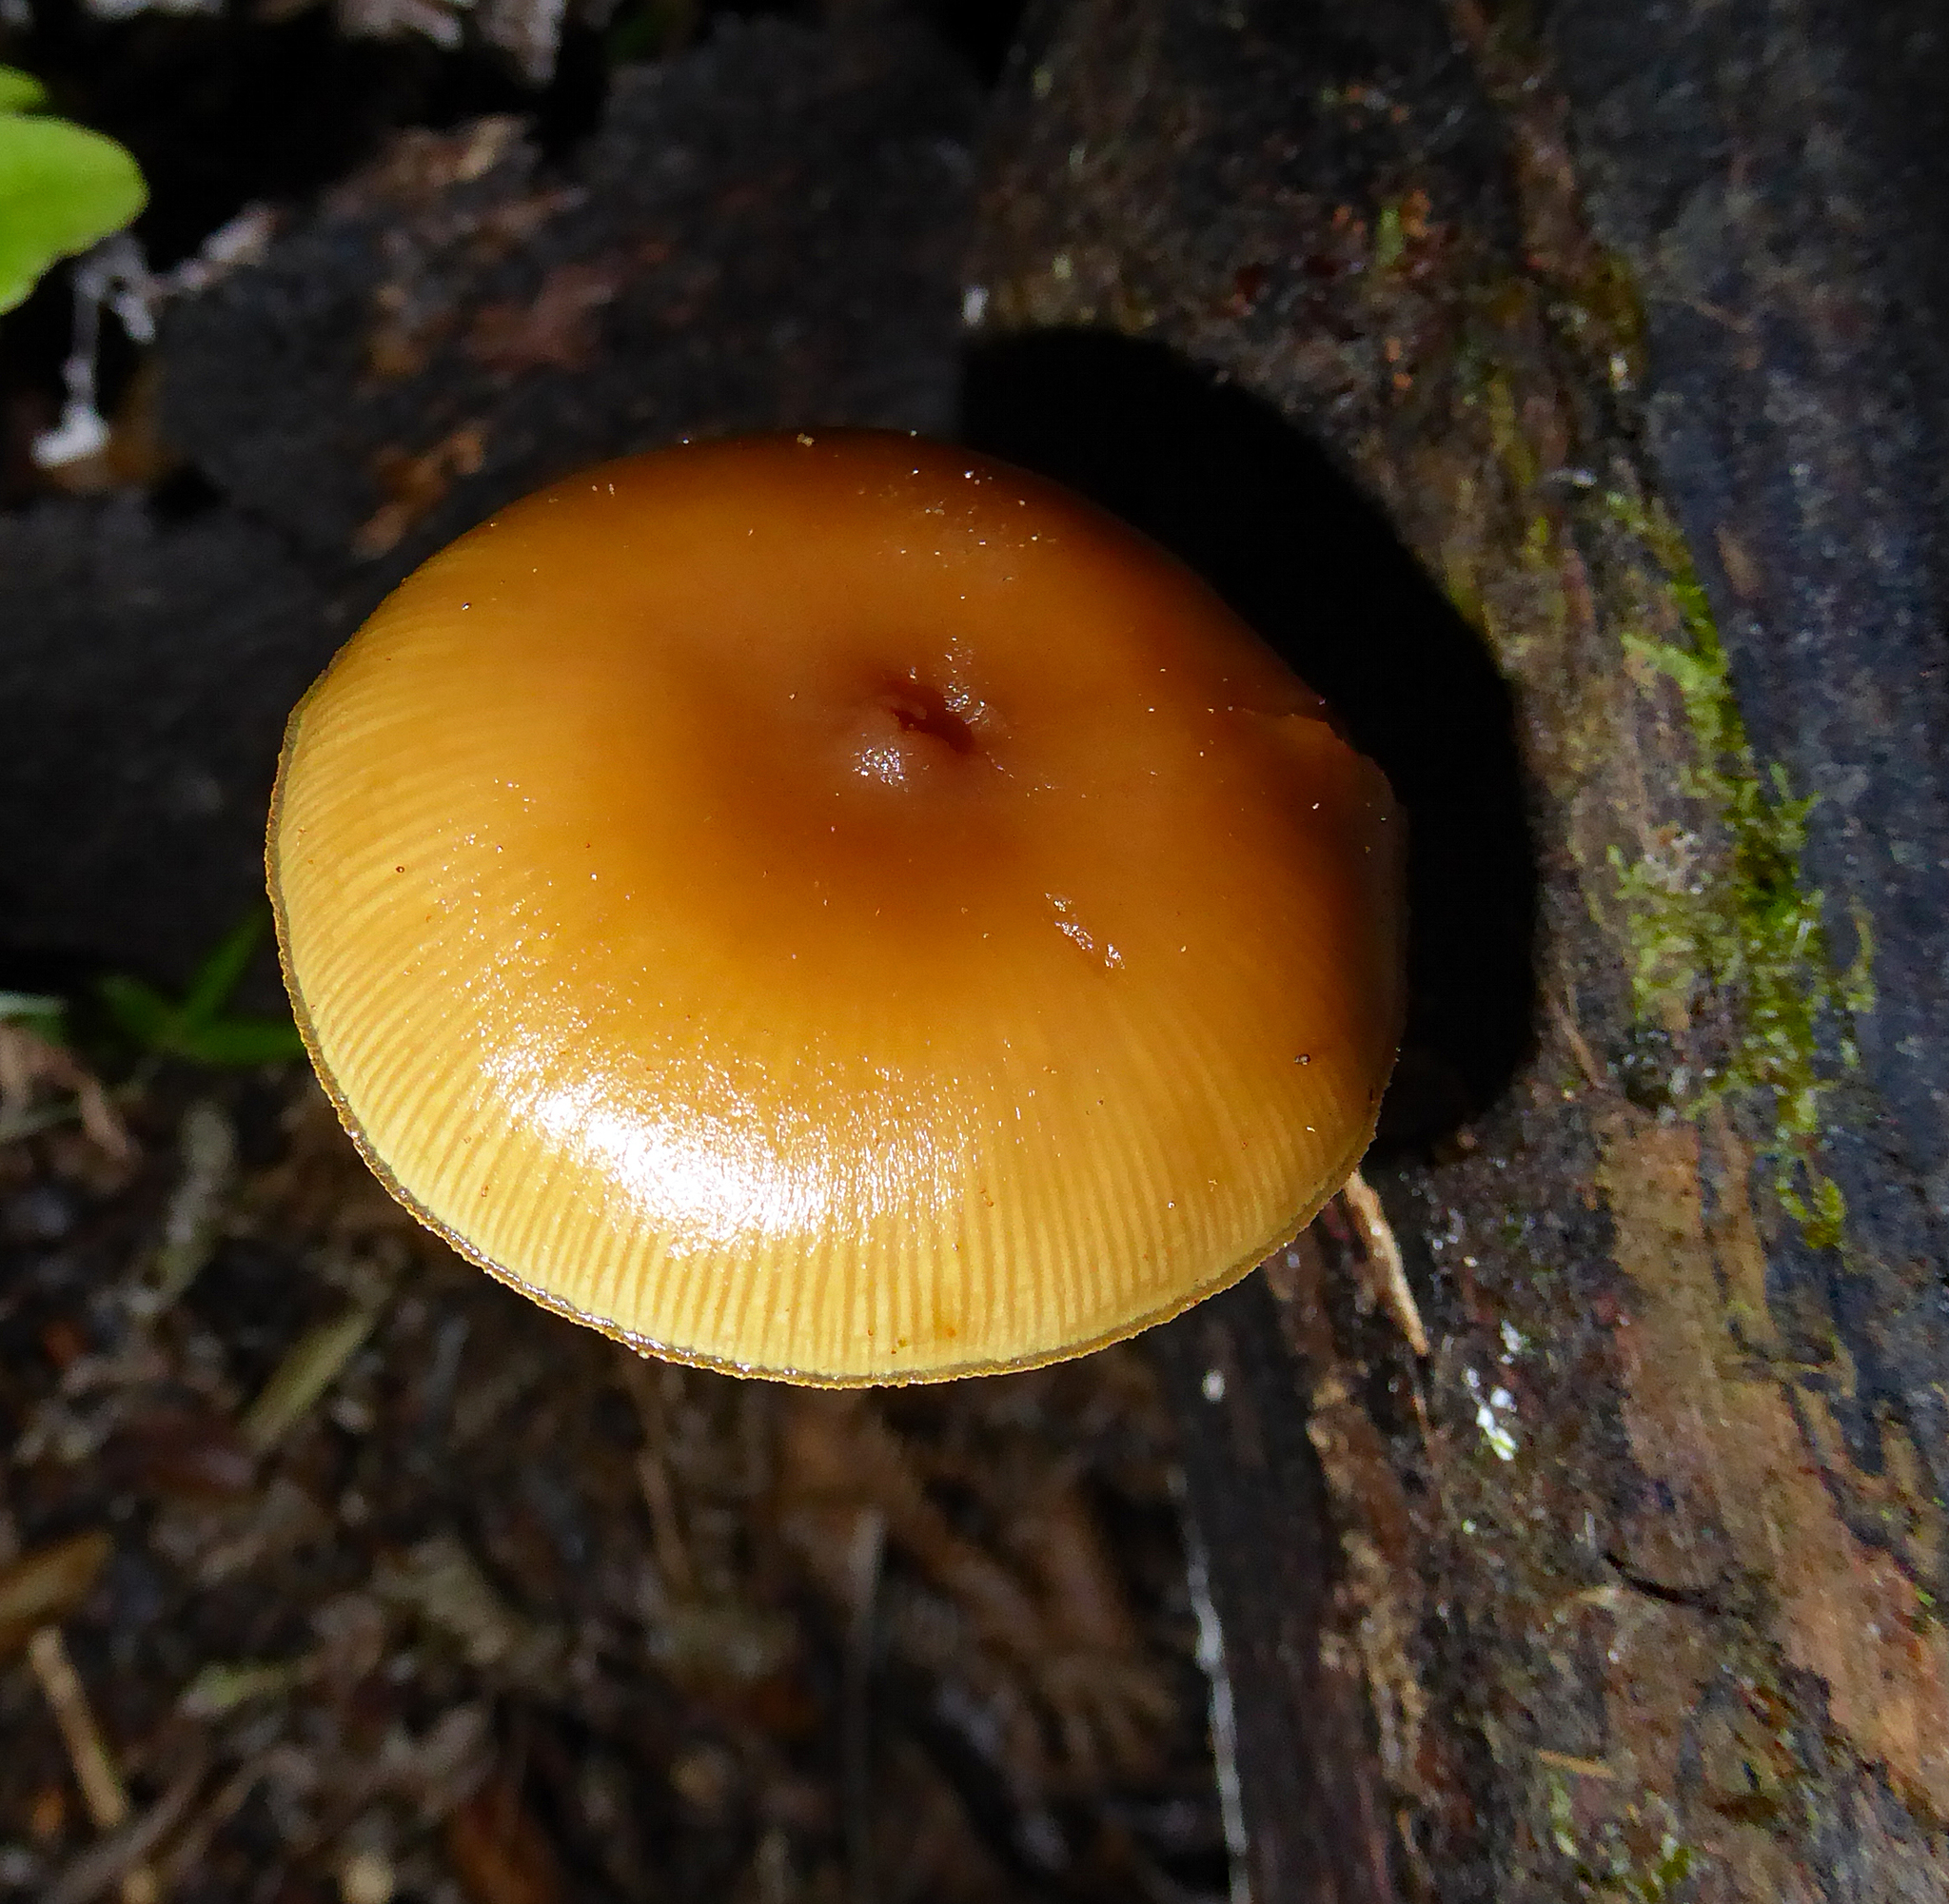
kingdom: Fungi
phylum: Basidiomycota
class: Agaricomycetes
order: Agaricales
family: Hymenogastraceae
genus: Galerina
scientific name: Galerina patagonica
